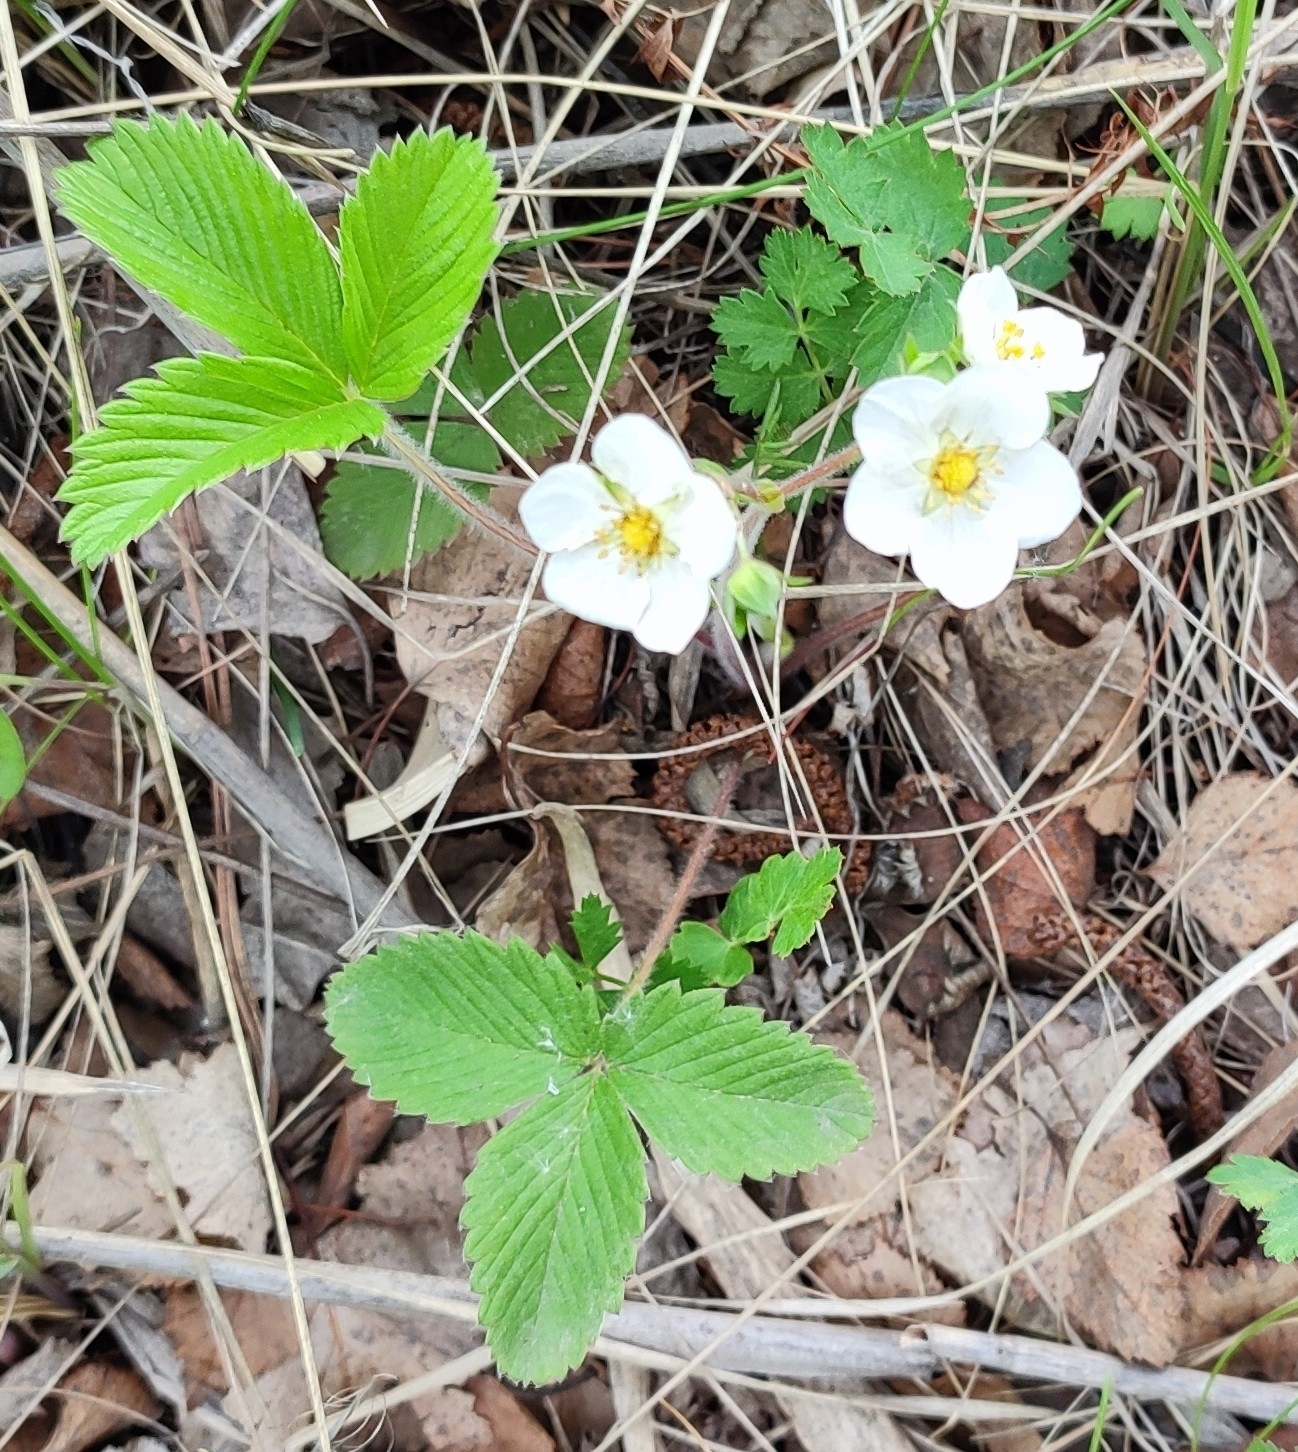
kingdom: Plantae
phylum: Tracheophyta
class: Magnoliopsida
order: Rosales
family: Rosaceae
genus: Fragaria
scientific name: Fragaria viridis
